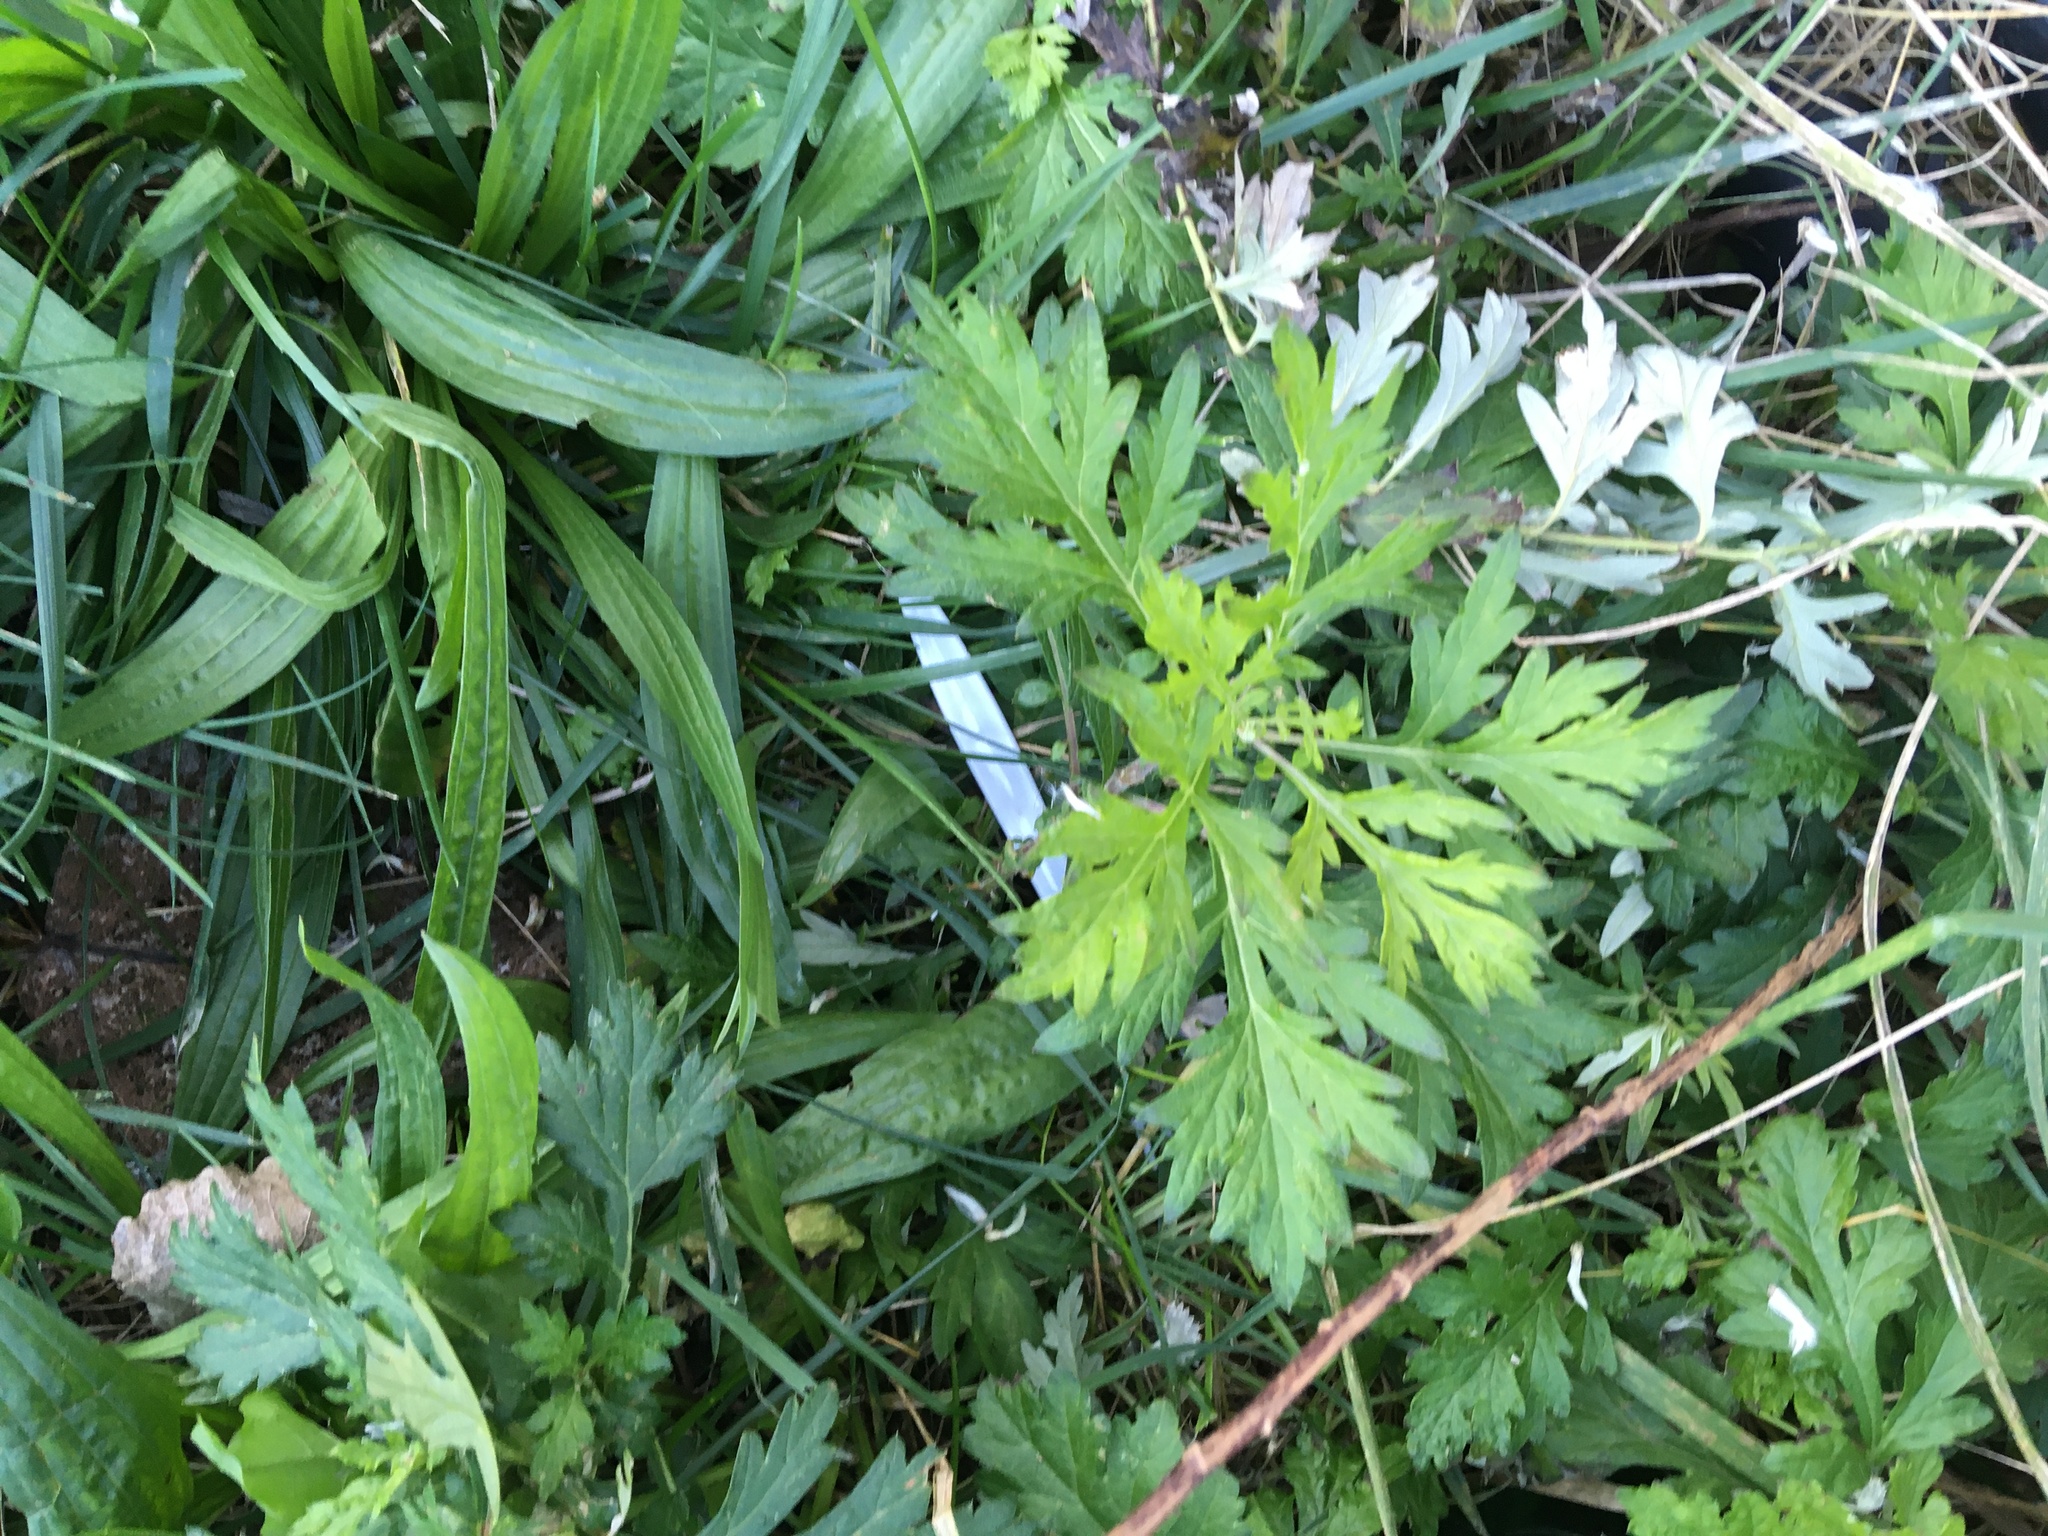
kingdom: Plantae
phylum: Tracheophyta
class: Magnoliopsida
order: Asterales
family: Asteraceae
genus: Artemisia
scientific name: Artemisia vulgaris
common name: Mugwort
